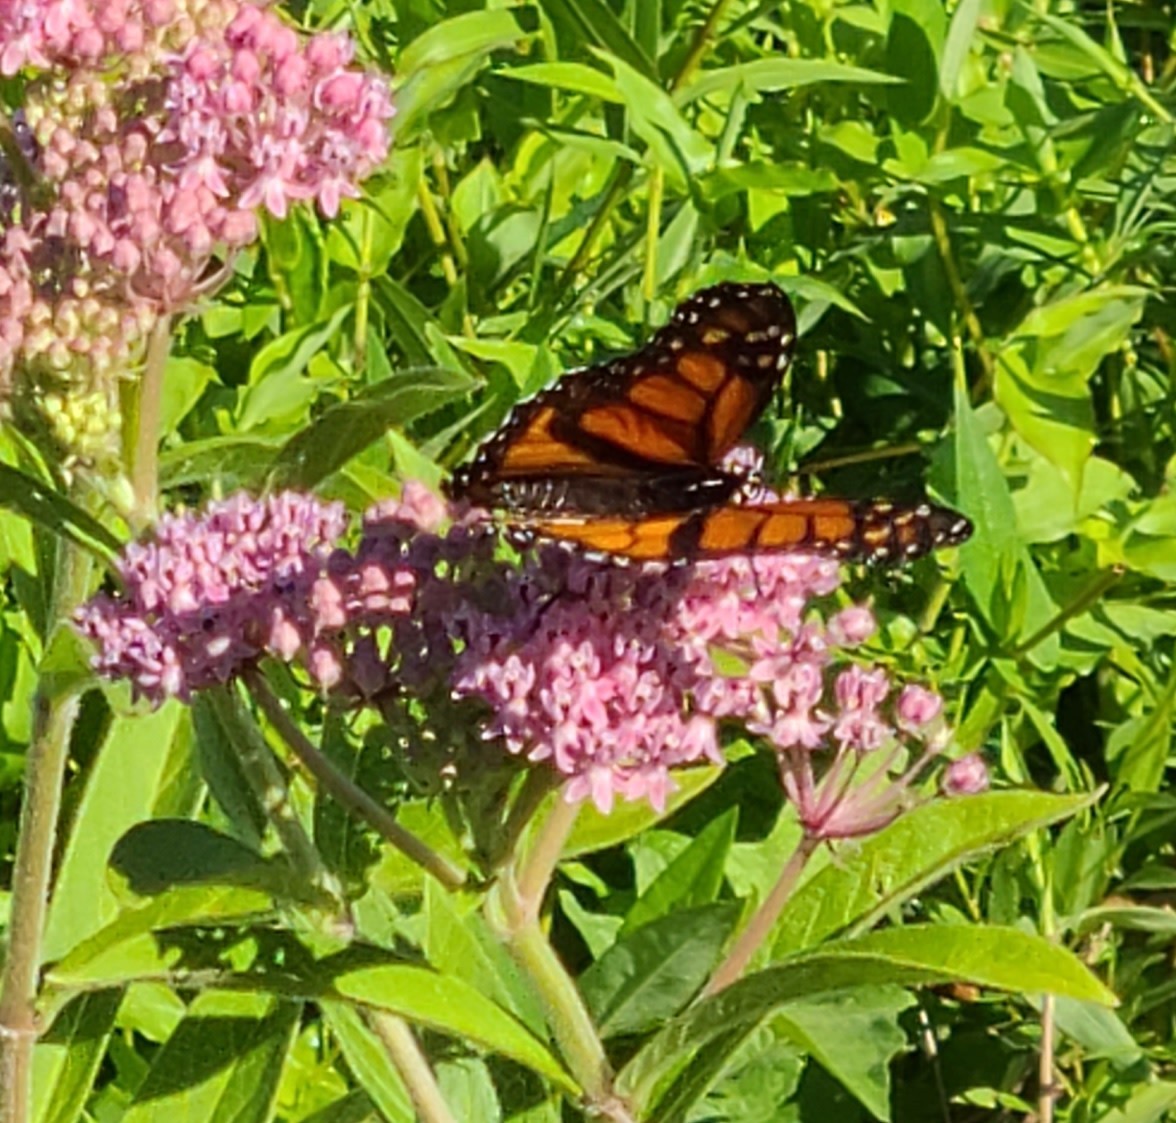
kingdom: Animalia
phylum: Arthropoda
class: Insecta
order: Lepidoptera
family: Nymphalidae
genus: Danaus
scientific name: Danaus plexippus
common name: Monarch
